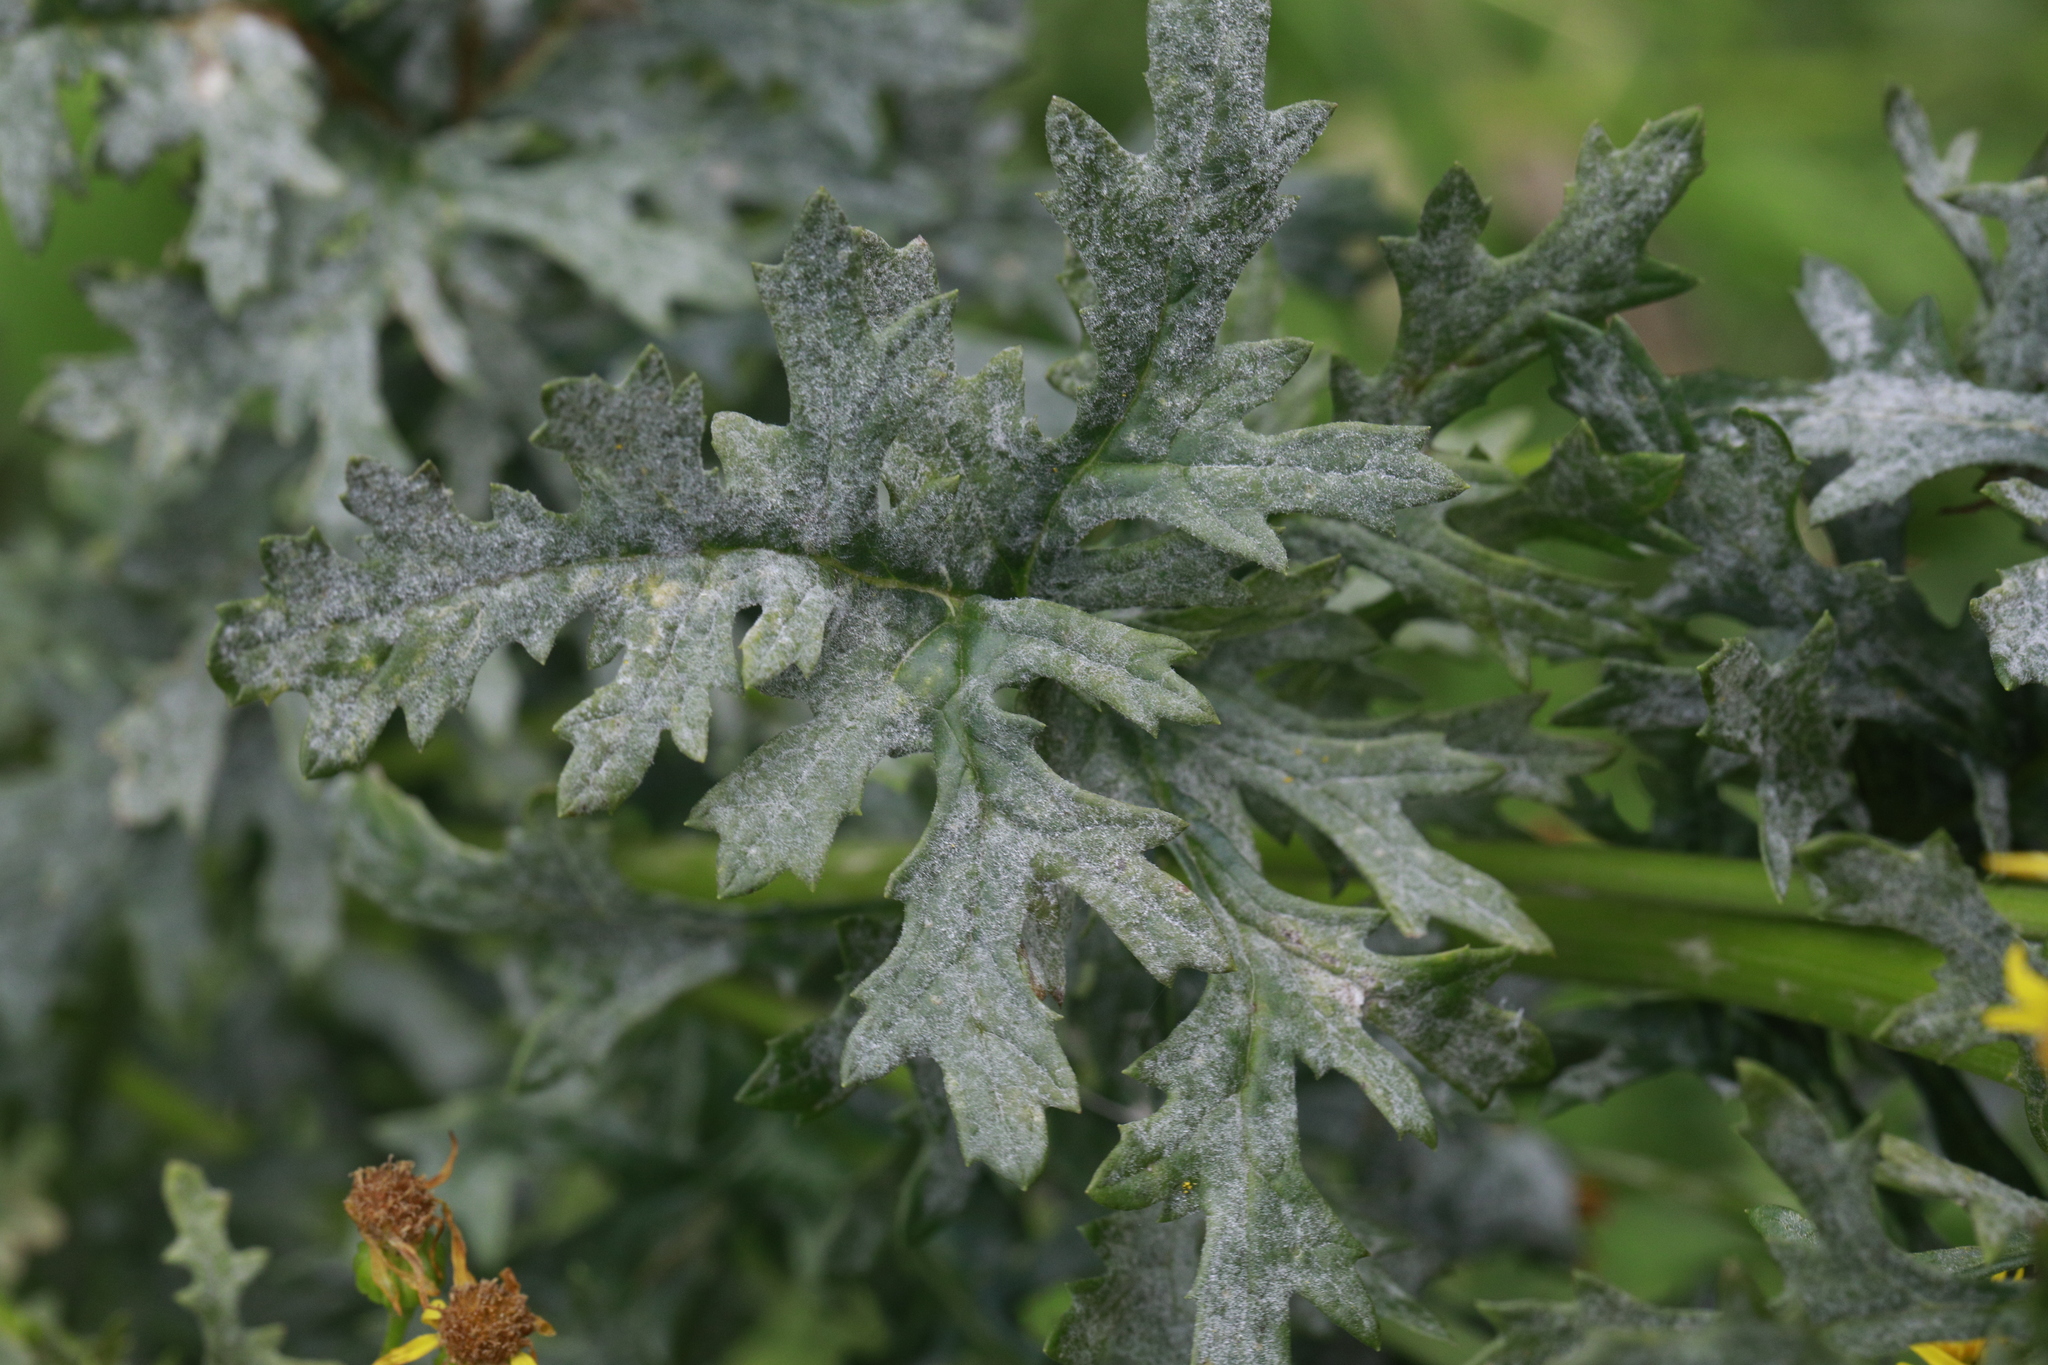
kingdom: Fungi
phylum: Ascomycota
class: Leotiomycetes
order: Helotiales
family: Erysiphaceae
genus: Golovinomyces
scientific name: Golovinomyces senecionis
